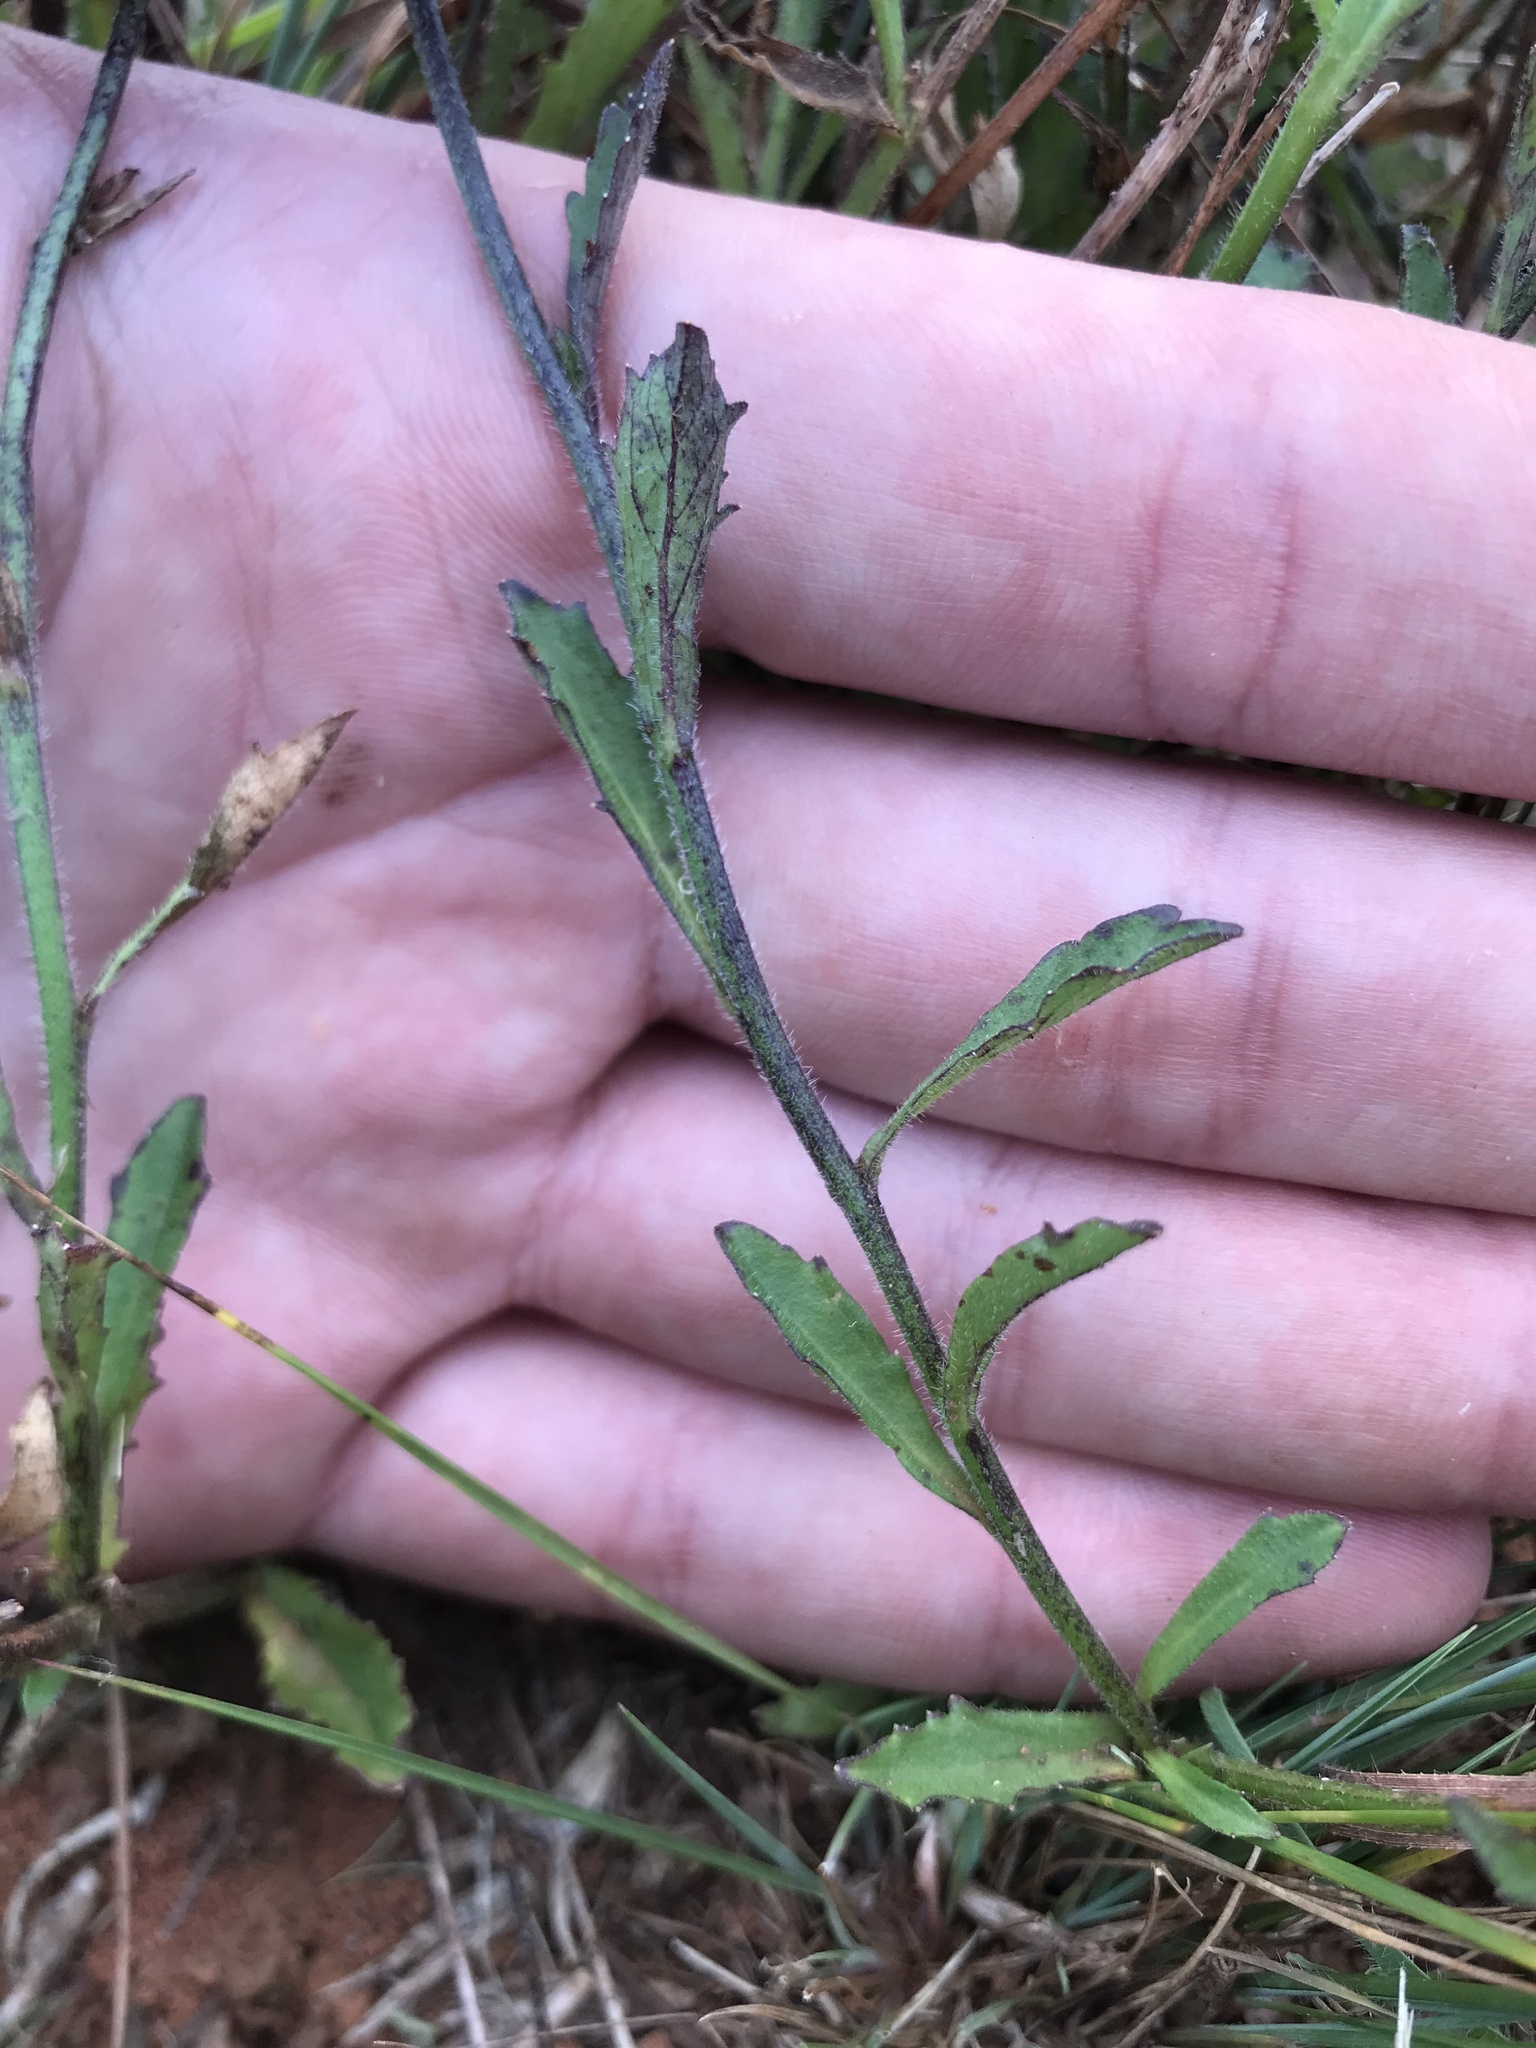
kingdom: Plantae
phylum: Tracheophyta
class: Magnoliopsida
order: Asterales
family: Campanulaceae
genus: Lobelia
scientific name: Lobelia goetzei
